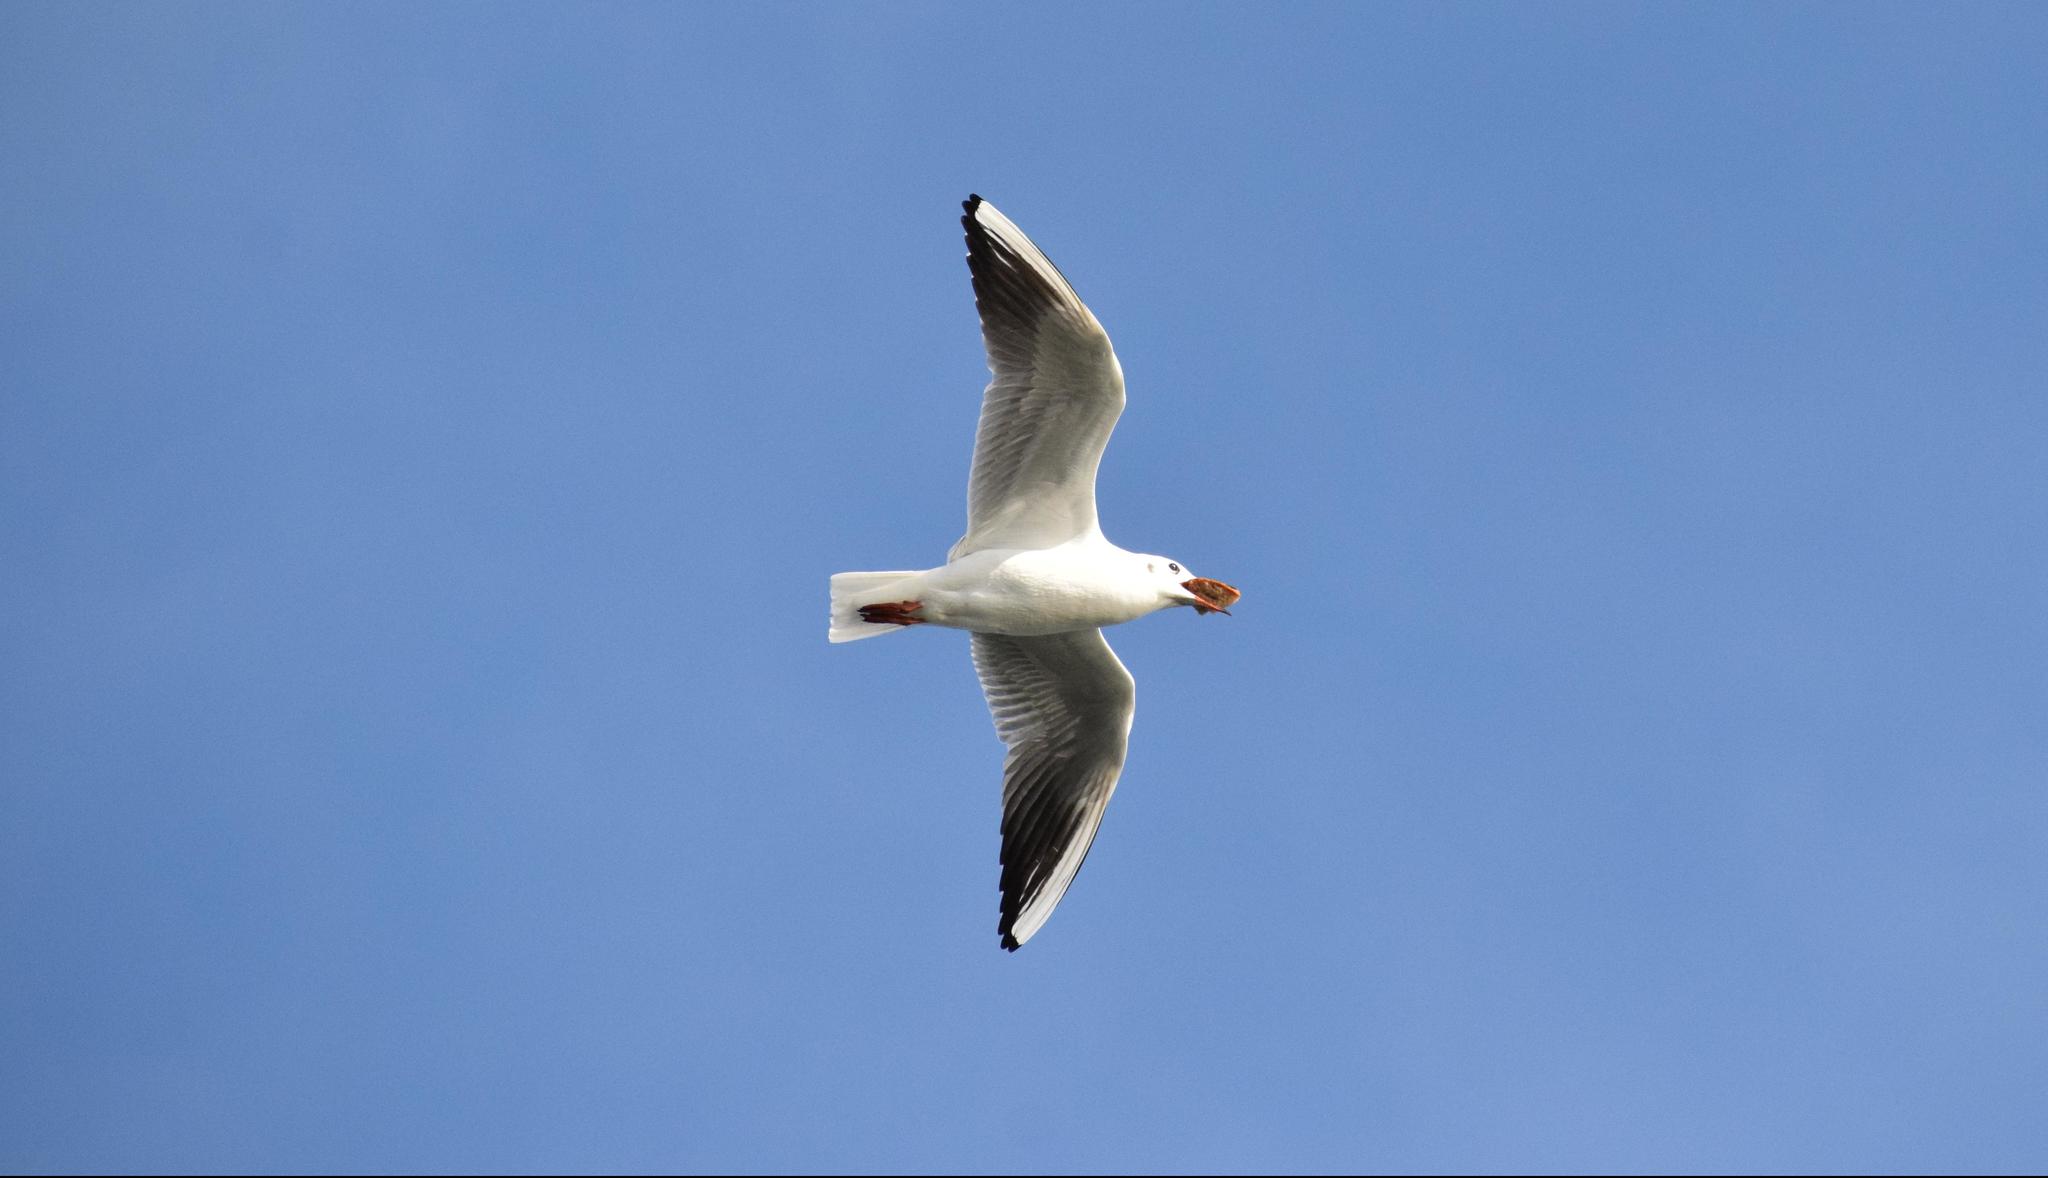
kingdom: Animalia
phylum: Chordata
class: Aves
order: Charadriiformes
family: Laridae
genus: Chroicocephalus
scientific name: Chroicocephalus ridibundus
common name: Black-headed gull
